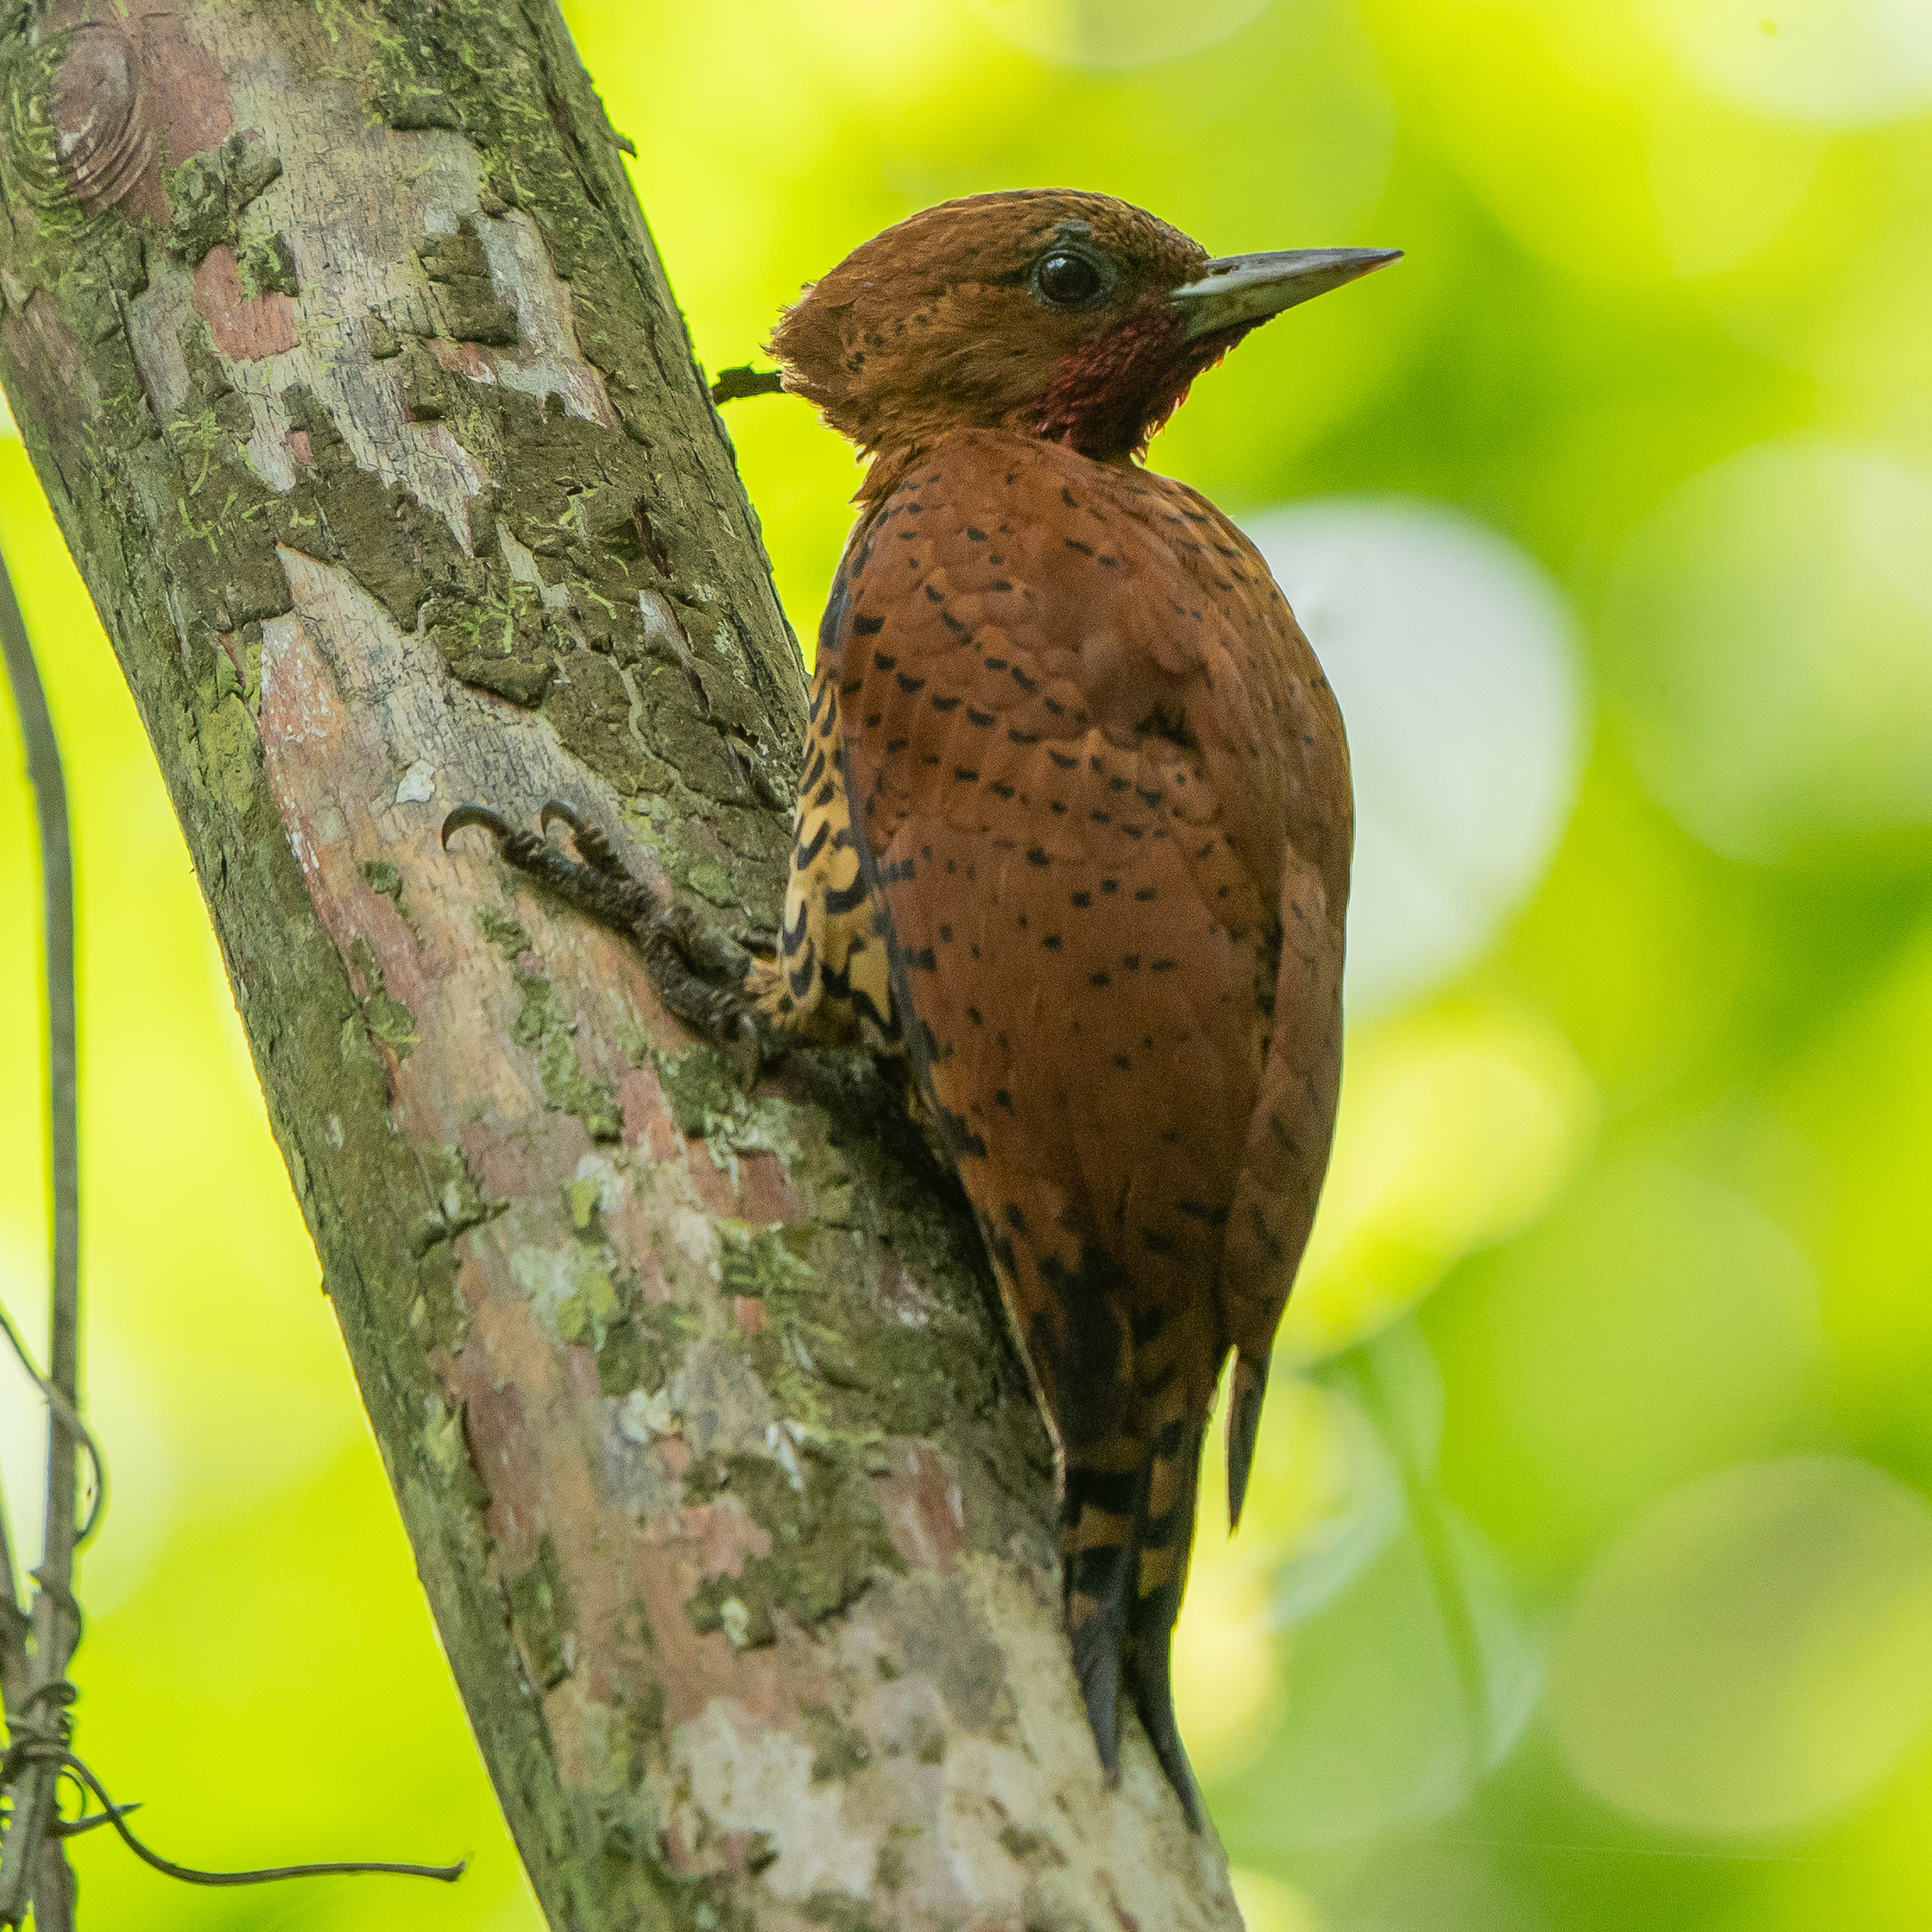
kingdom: Animalia
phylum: Chordata
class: Aves
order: Piciformes
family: Picidae
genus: Celeus
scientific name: Celeus loricatus
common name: Cinnamon woodpecker
